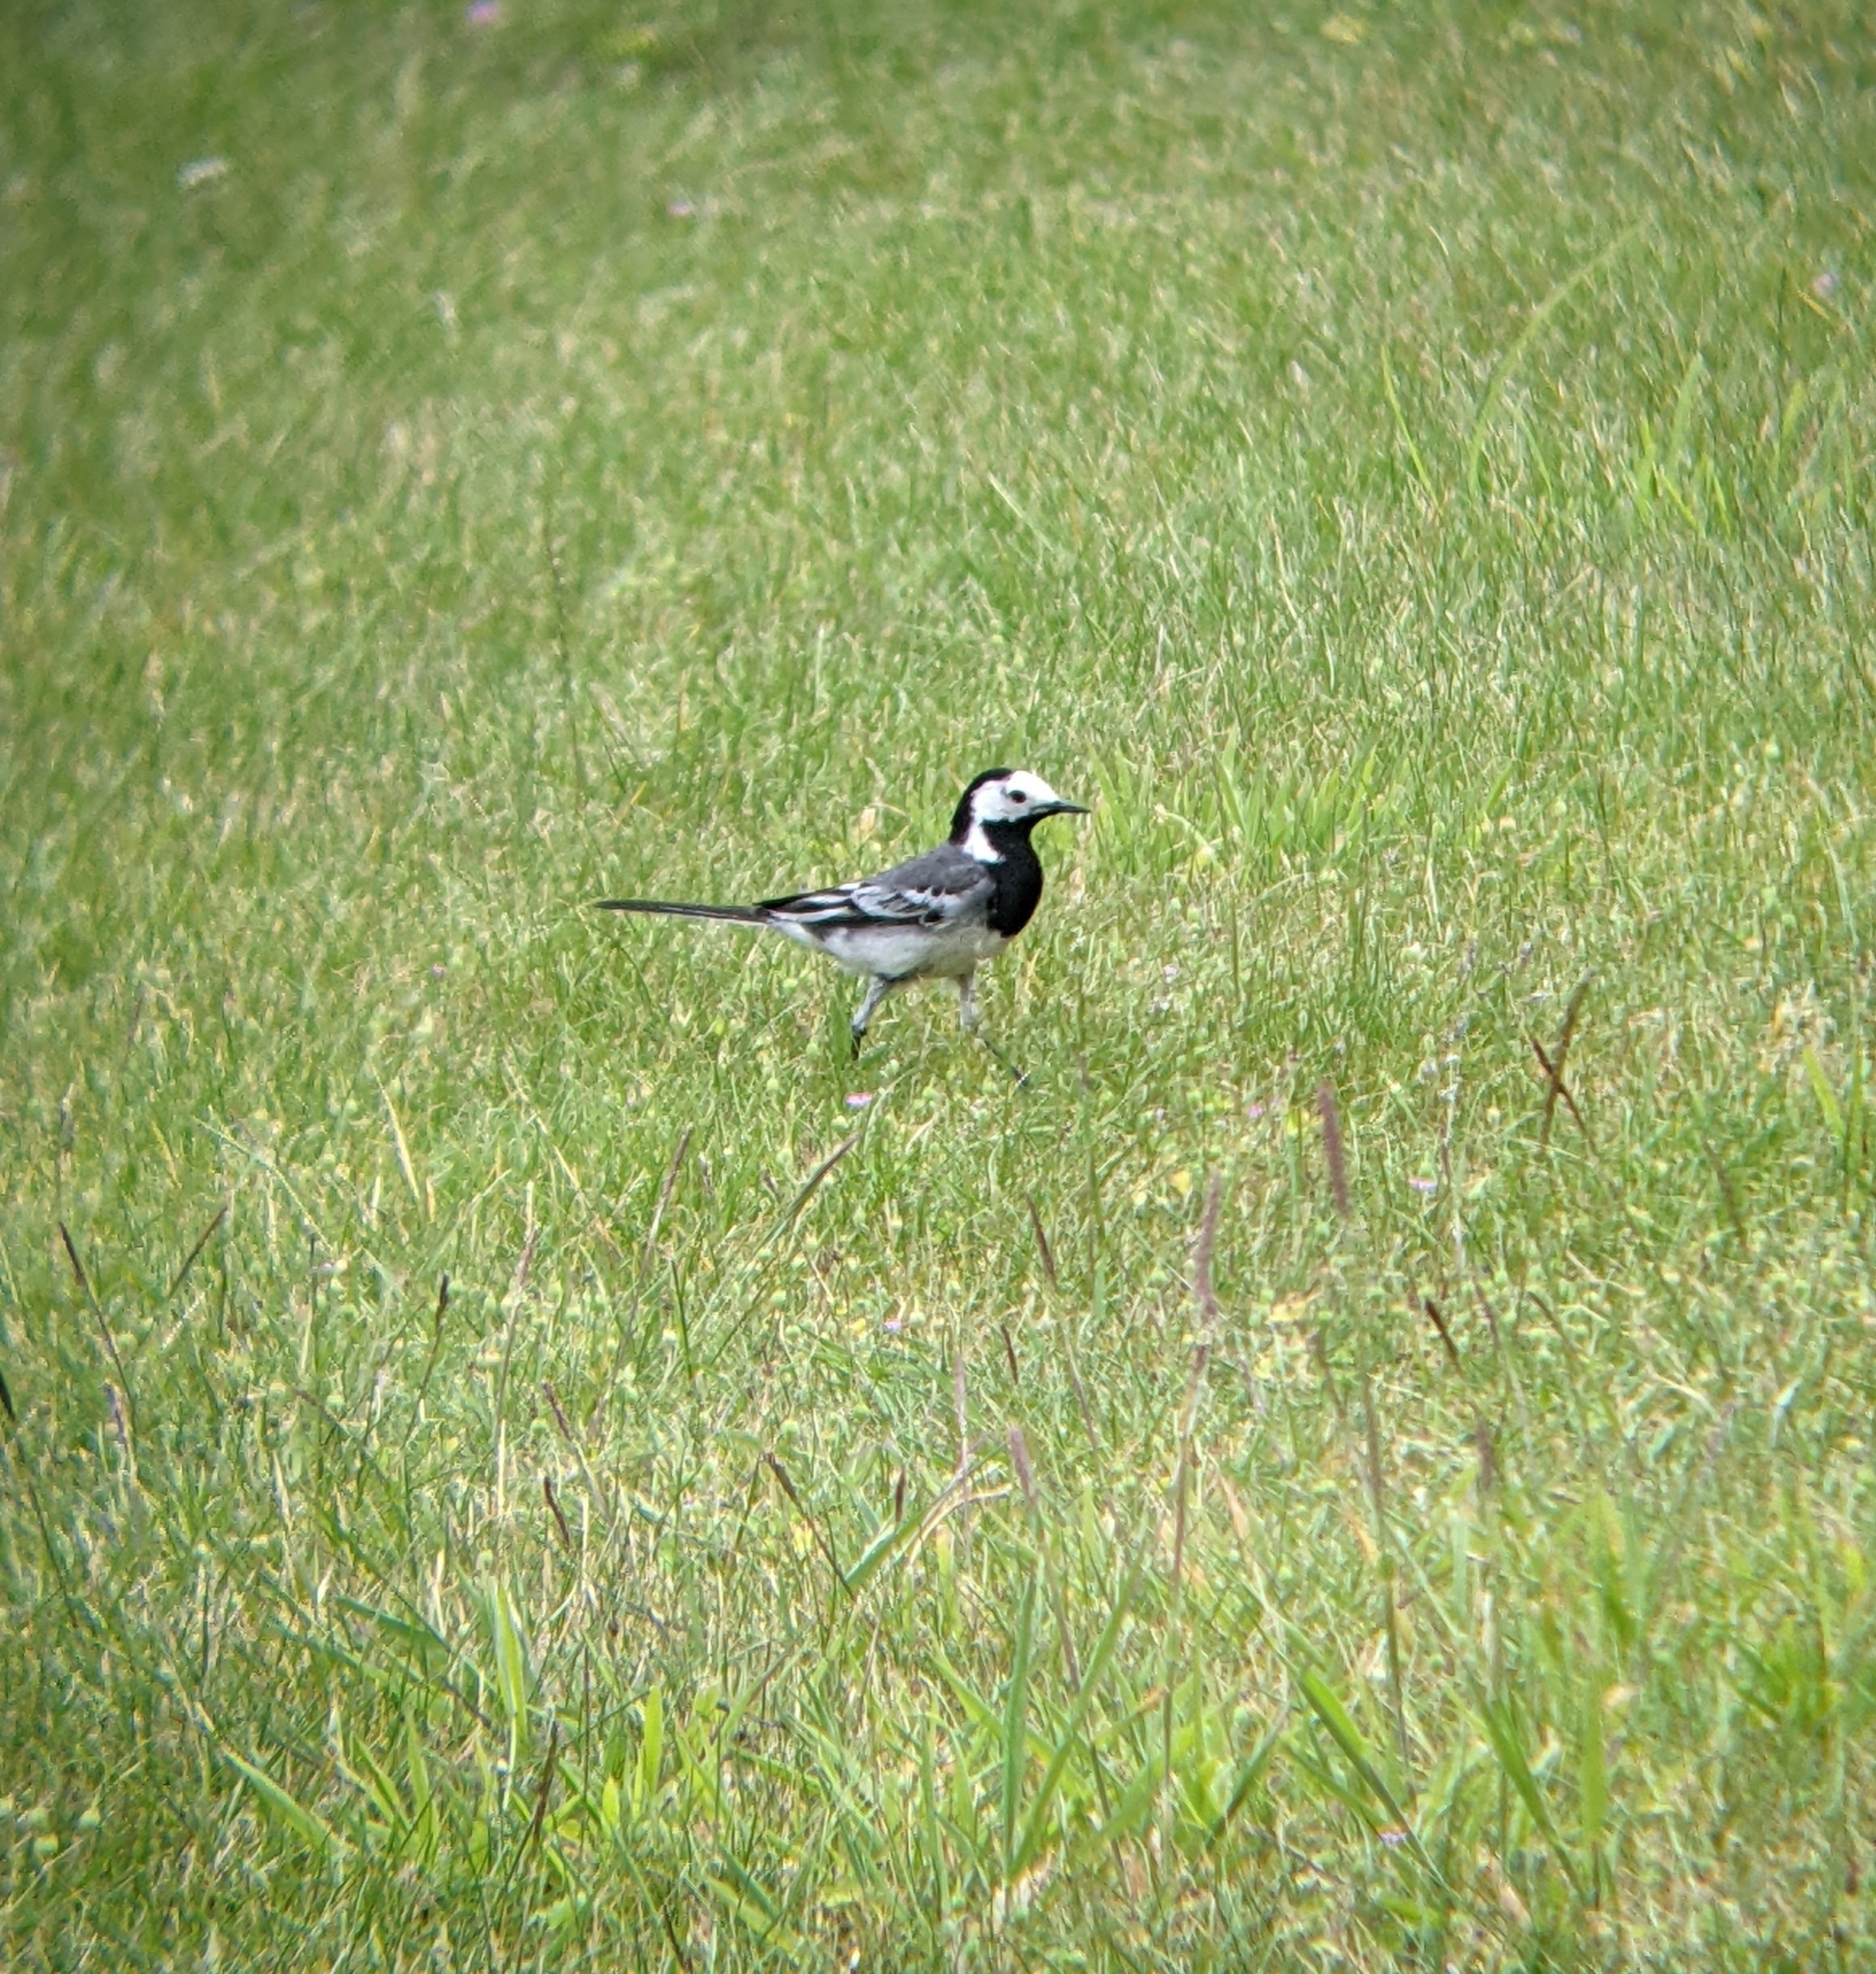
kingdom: Animalia
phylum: Chordata
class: Aves
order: Passeriformes
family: Motacillidae
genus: Motacilla
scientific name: Motacilla alba
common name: White wagtail
